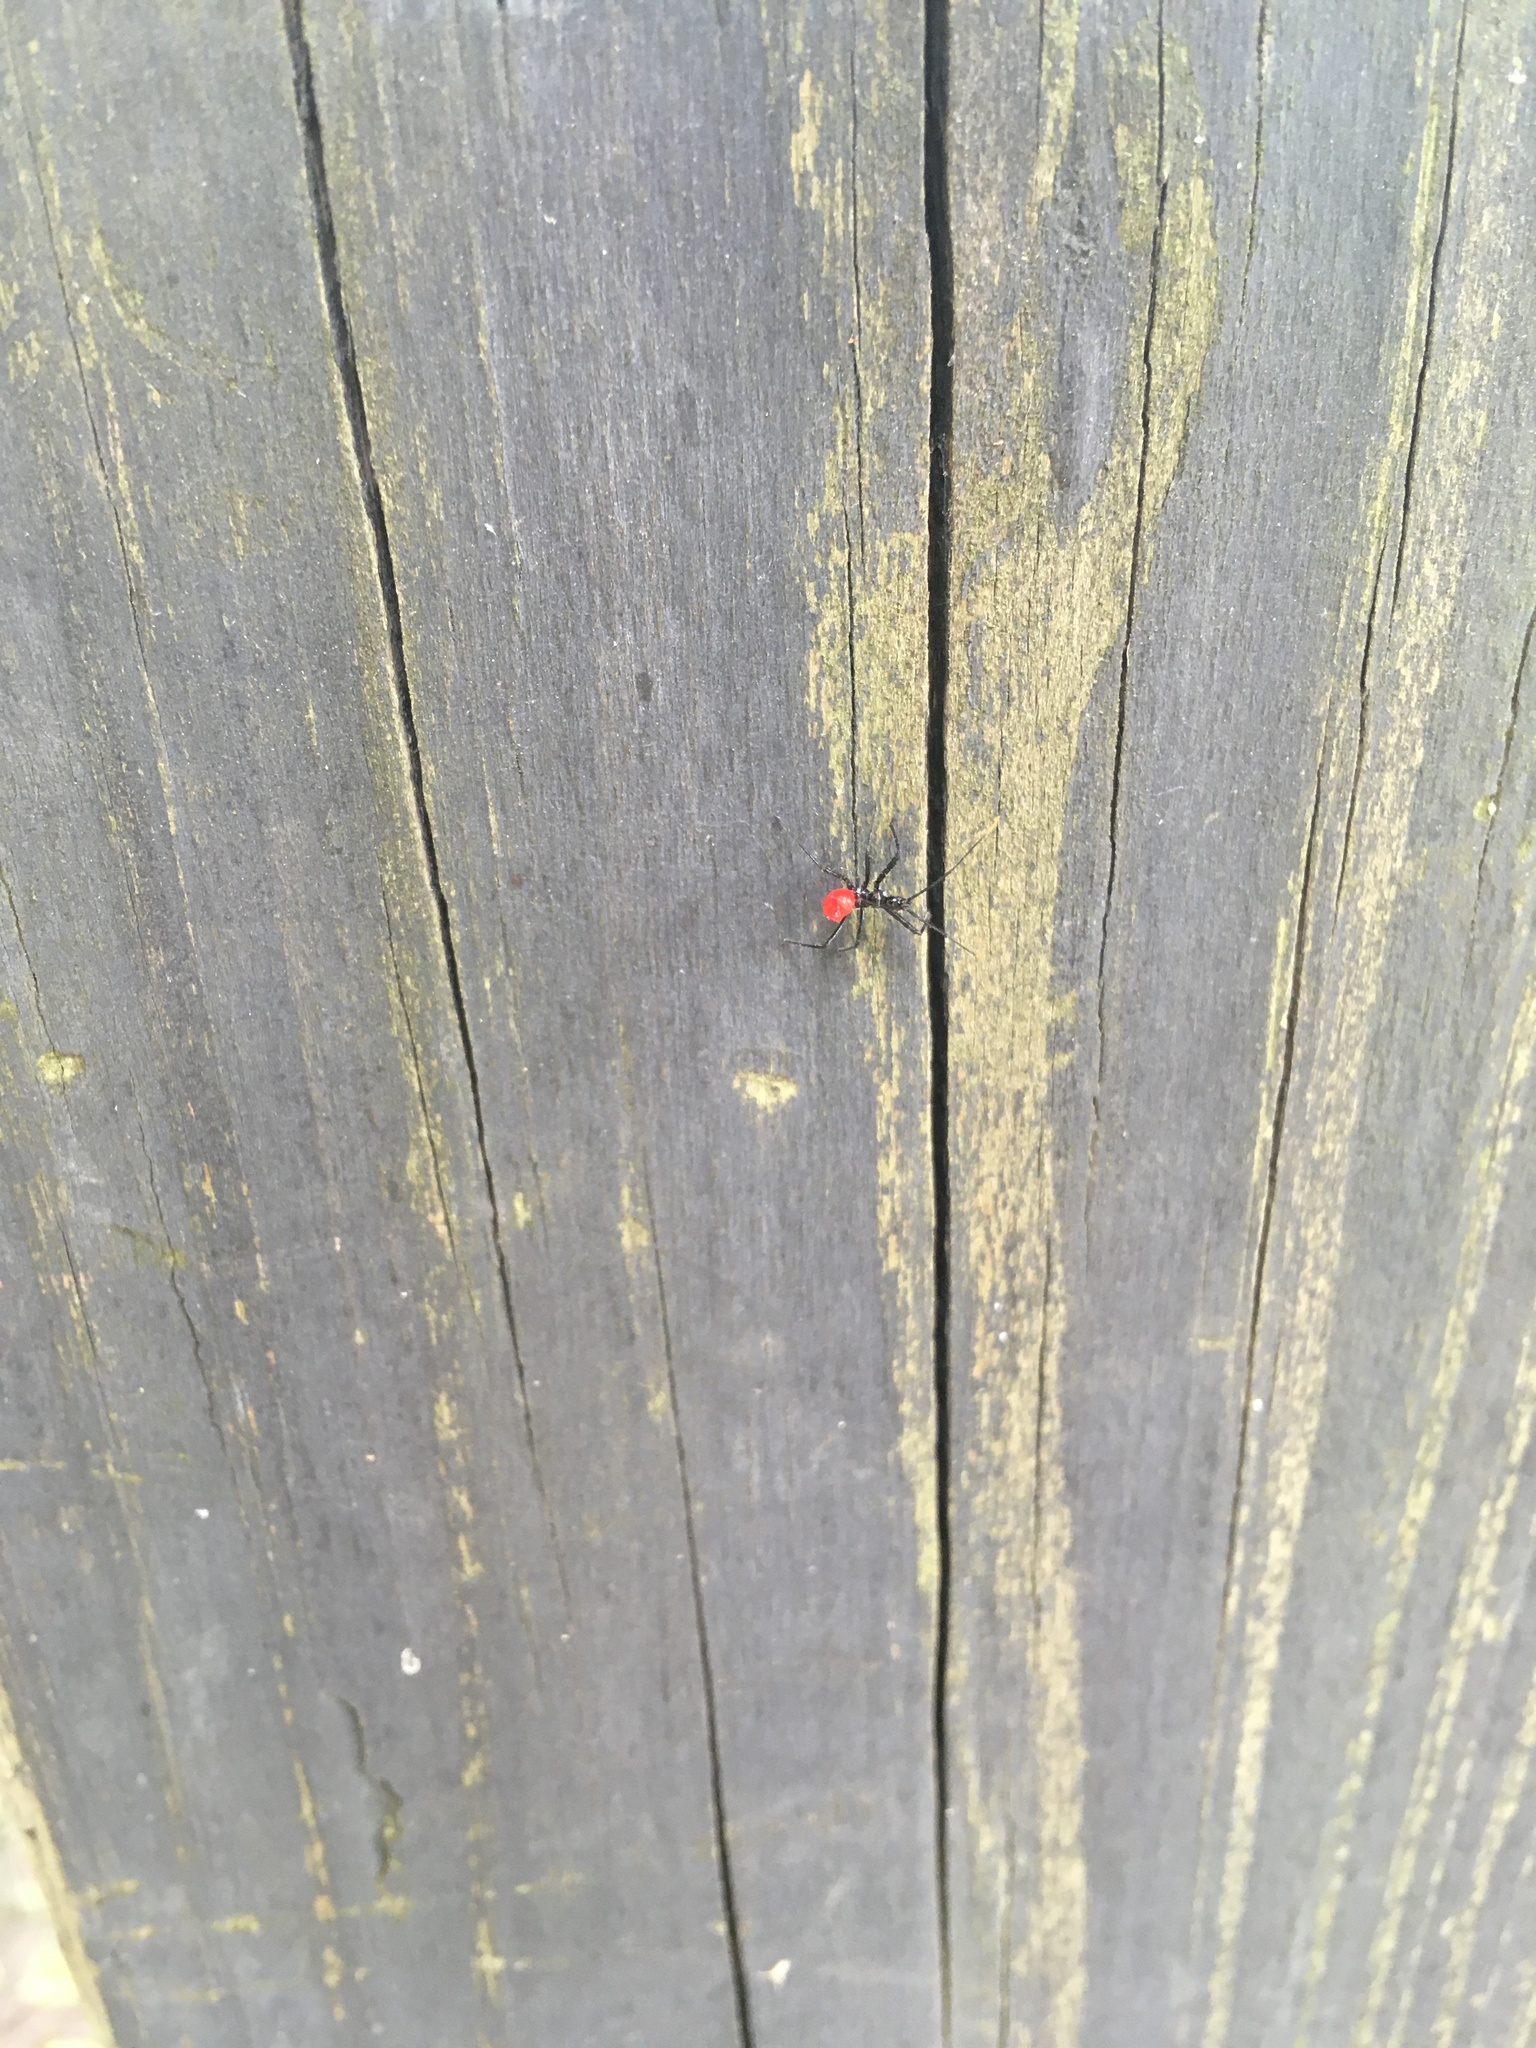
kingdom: Animalia
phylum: Arthropoda
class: Insecta
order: Hemiptera
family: Reduviidae
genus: Arilus
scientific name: Arilus cristatus
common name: North american wheel bug
